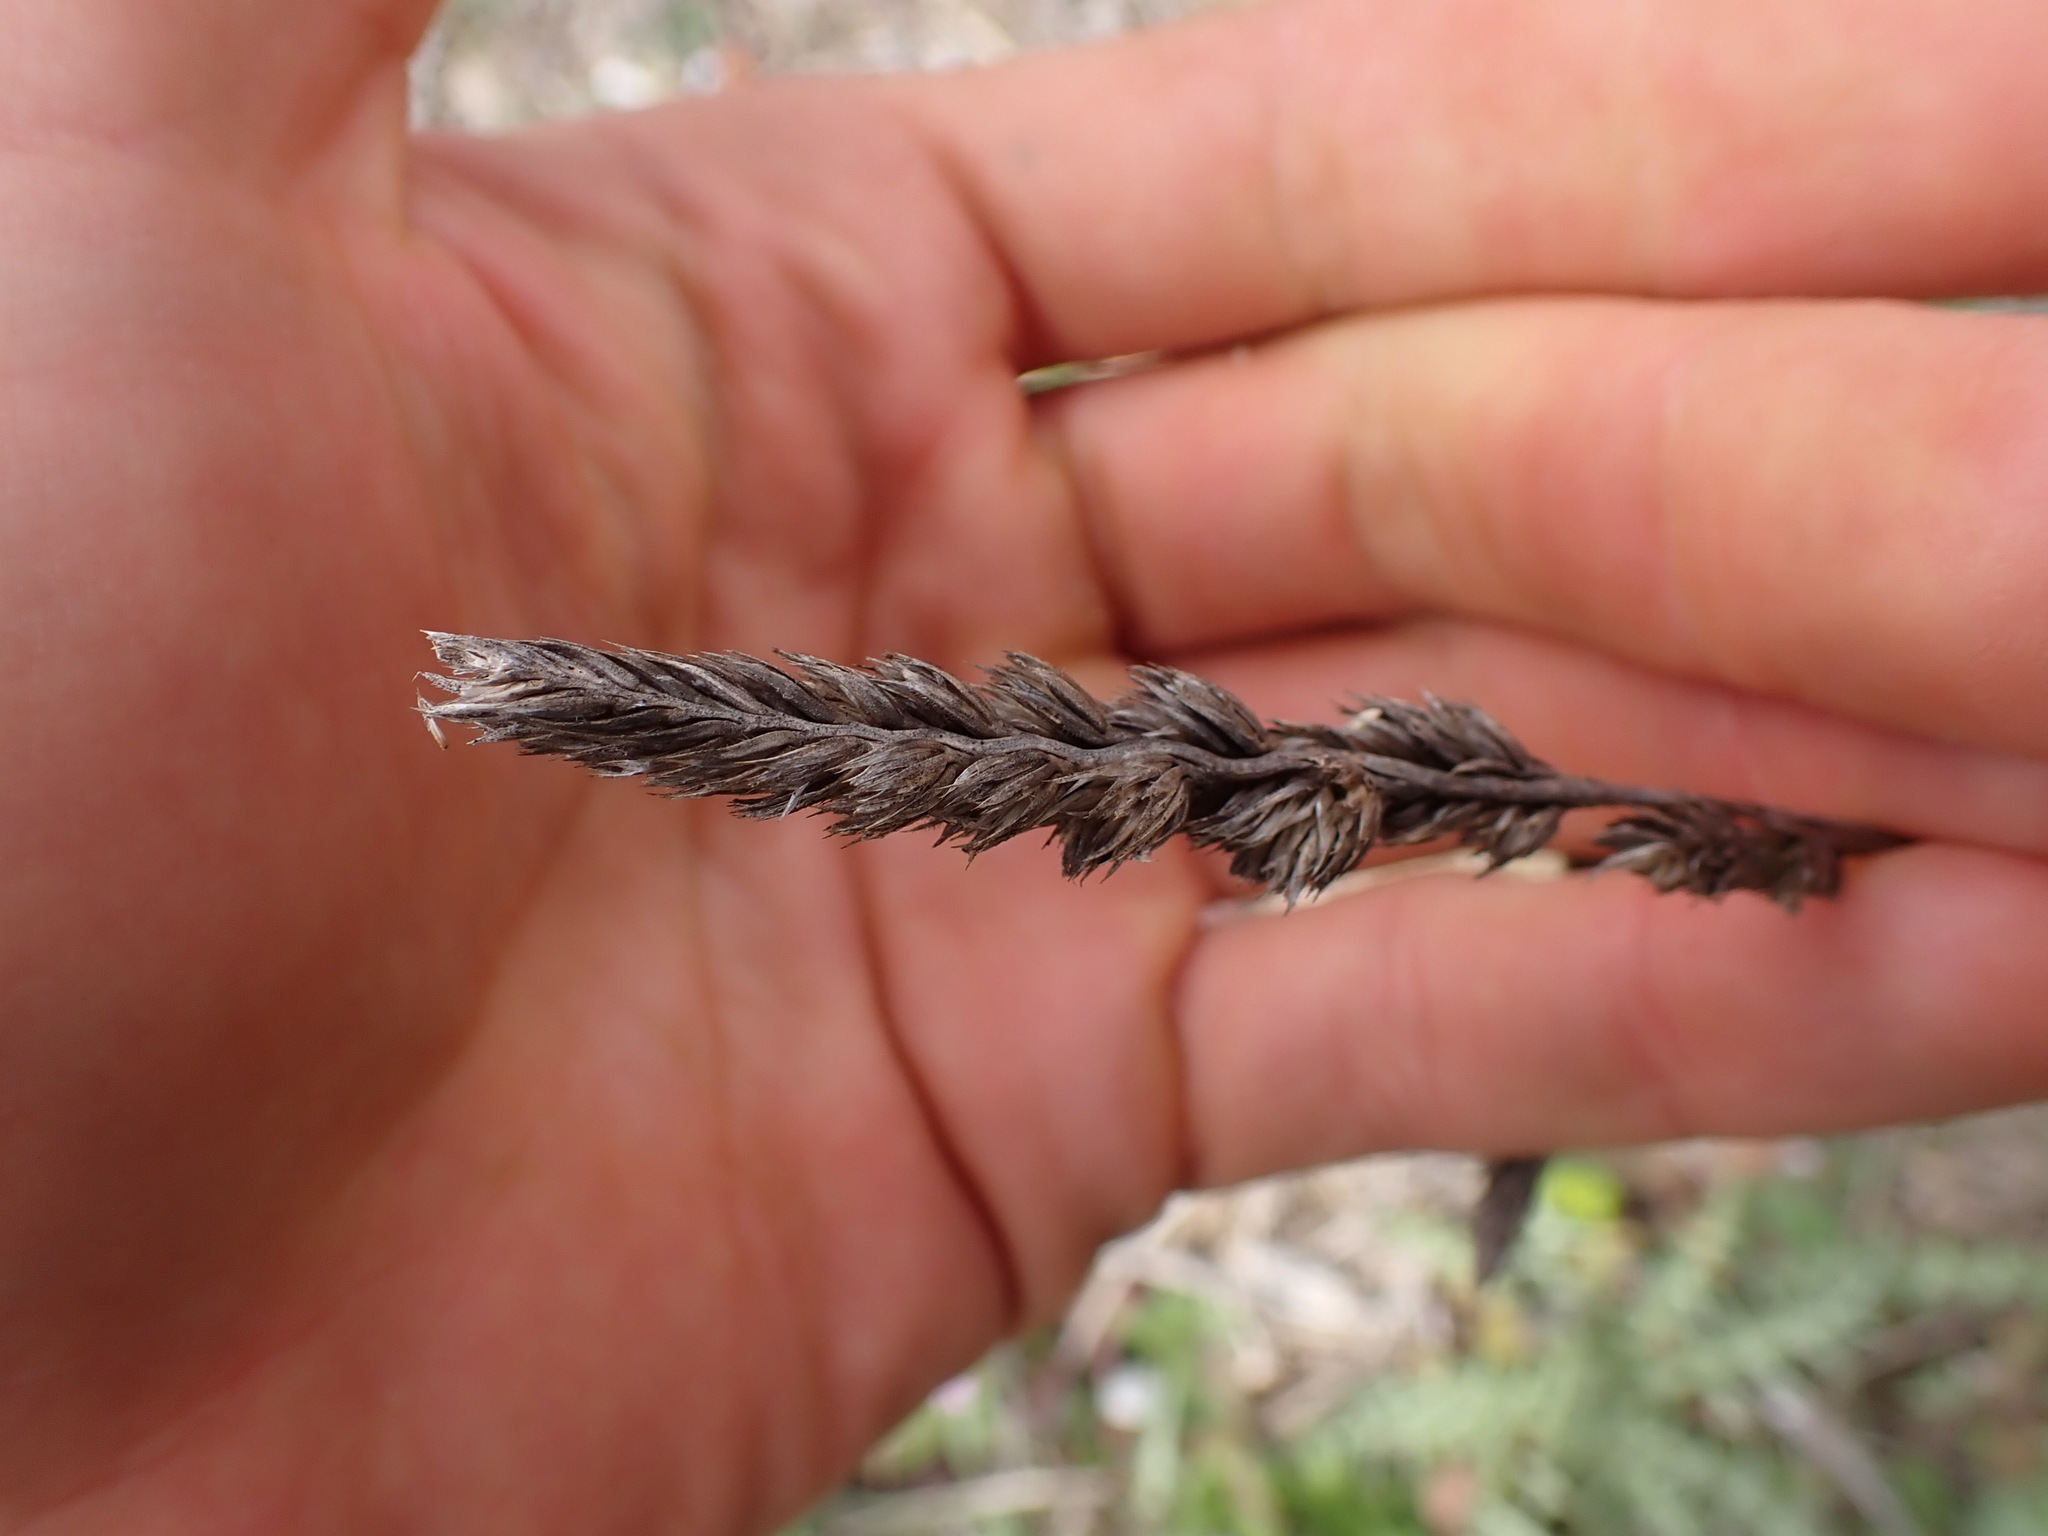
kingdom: Plantae
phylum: Tracheophyta
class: Liliopsida
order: Poales
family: Poaceae
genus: Dactylis
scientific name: Dactylis glomerata
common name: Orchardgrass
